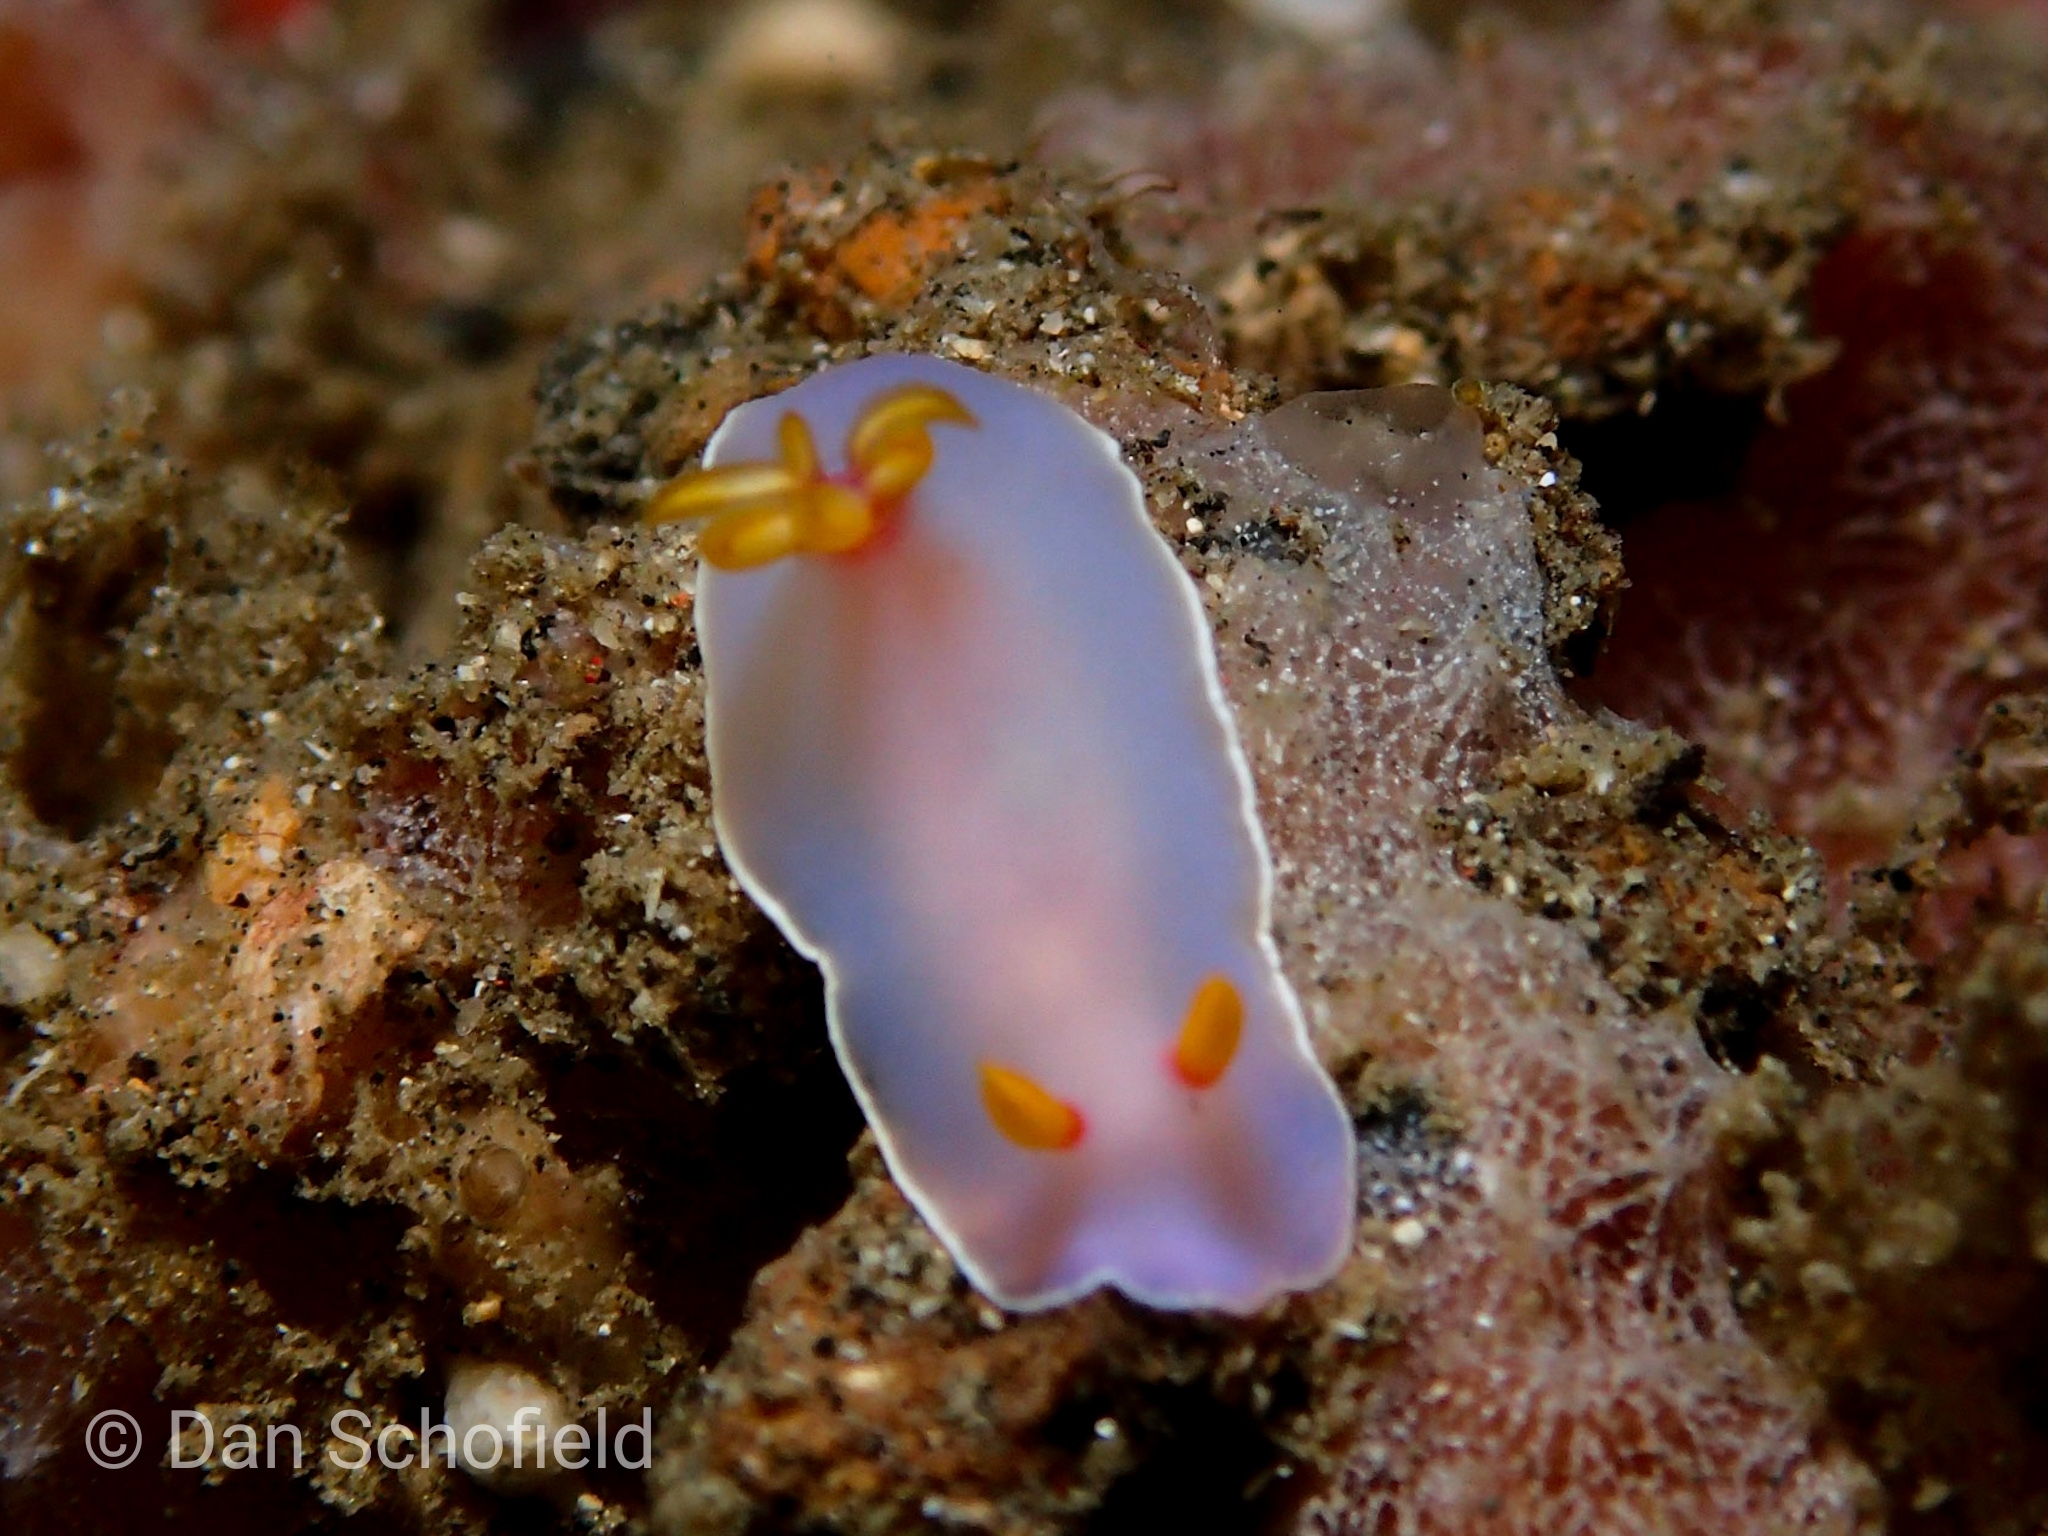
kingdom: Animalia
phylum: Mollusca
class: Gastropoda
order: Nudibranchia
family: Chromodorididae
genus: Hypselodoris
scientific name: Hypselodoris bullockii
